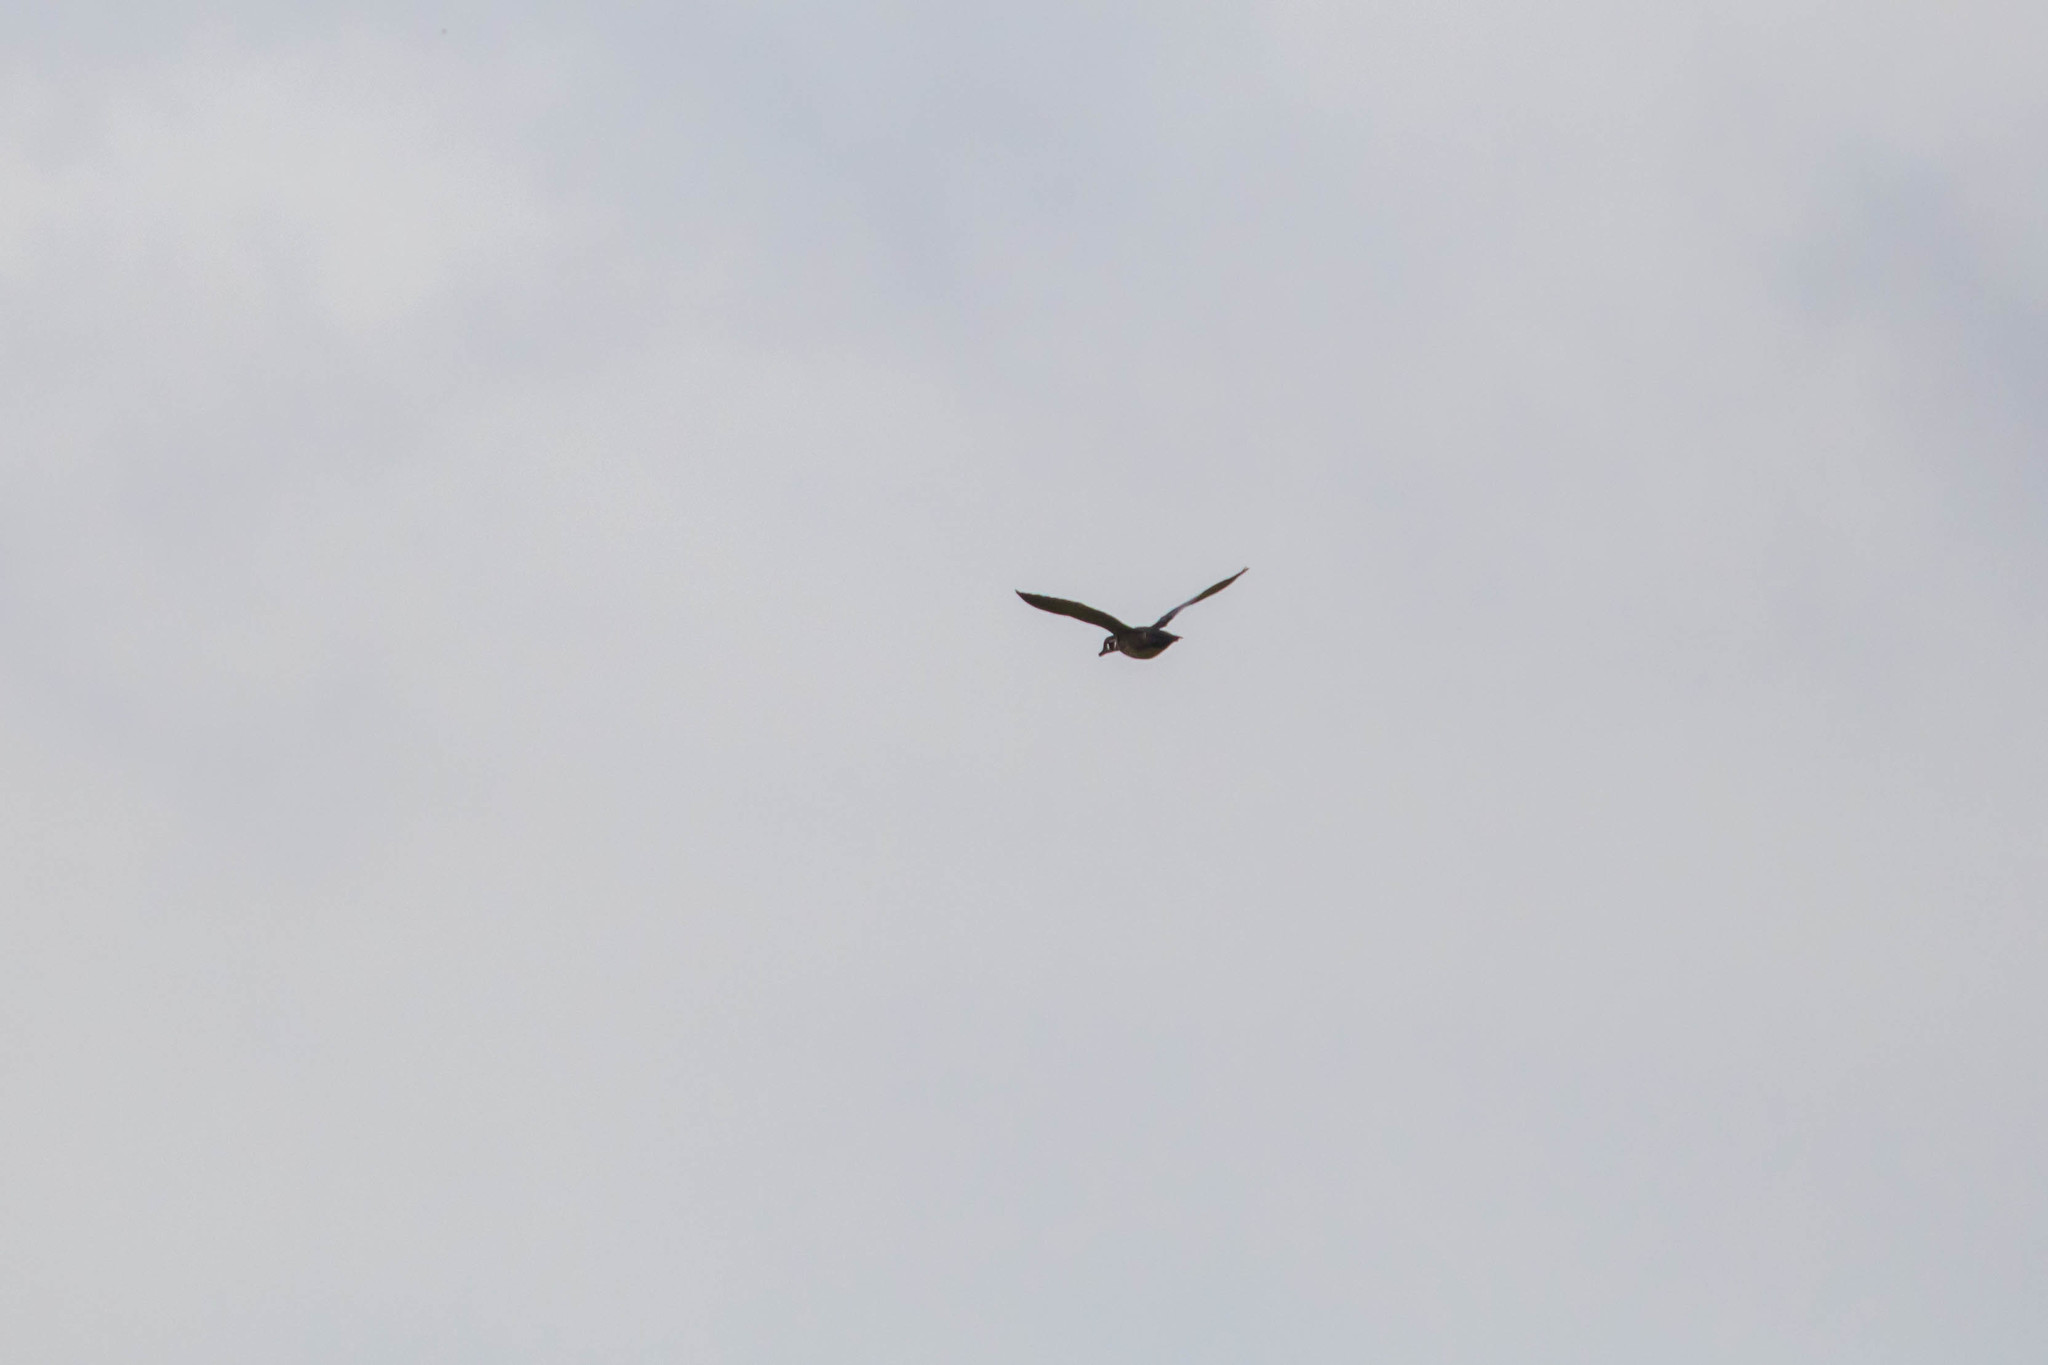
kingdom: Animalia
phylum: Chordata
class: Aves
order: Anseriformes
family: Anatidae
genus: Aix
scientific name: Aix sponsa
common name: Wood duck
